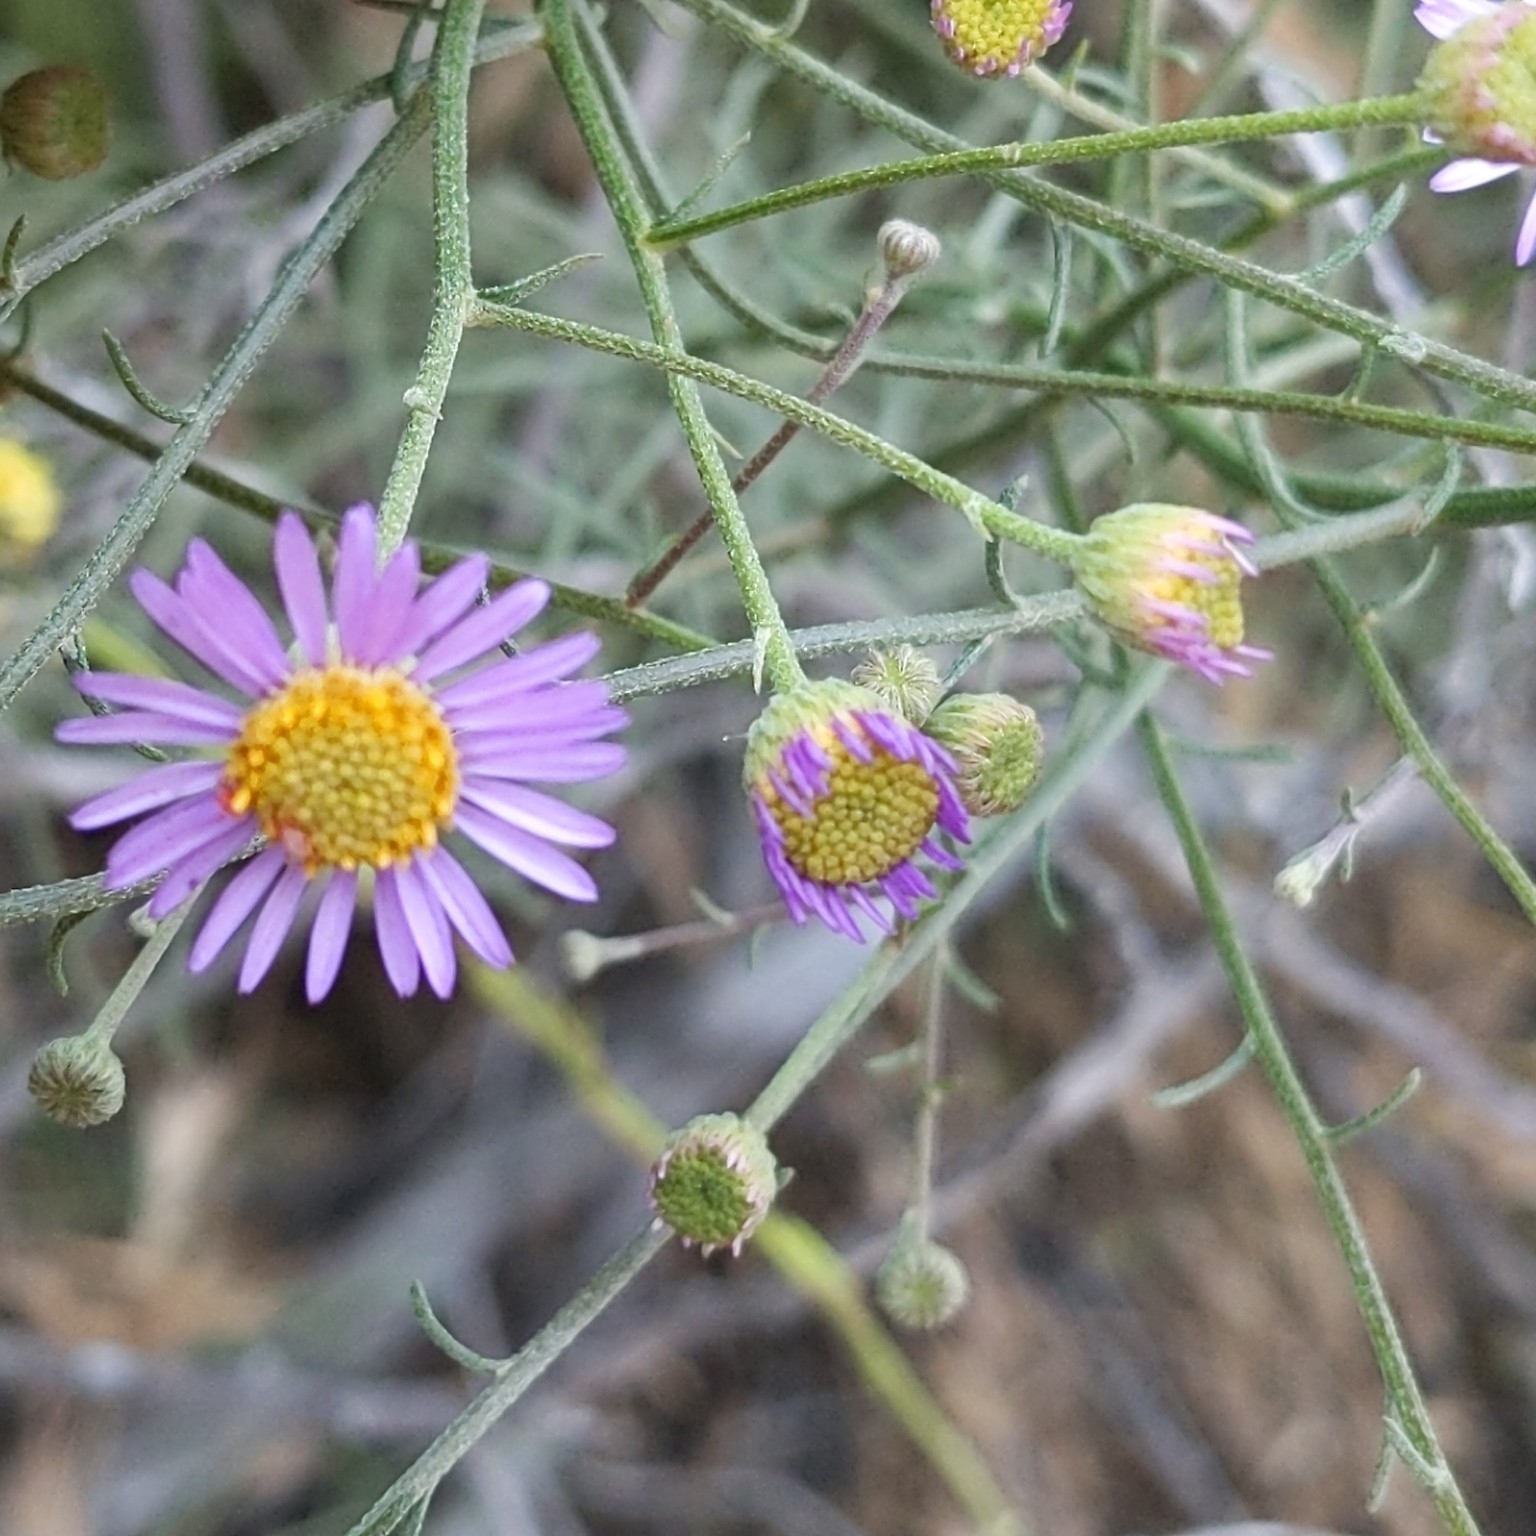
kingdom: Plantae
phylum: Tracheophyta
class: Magnoliopsida
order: Asterales
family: Asteraceae
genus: Erigeron
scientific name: Erigeron foliosus
